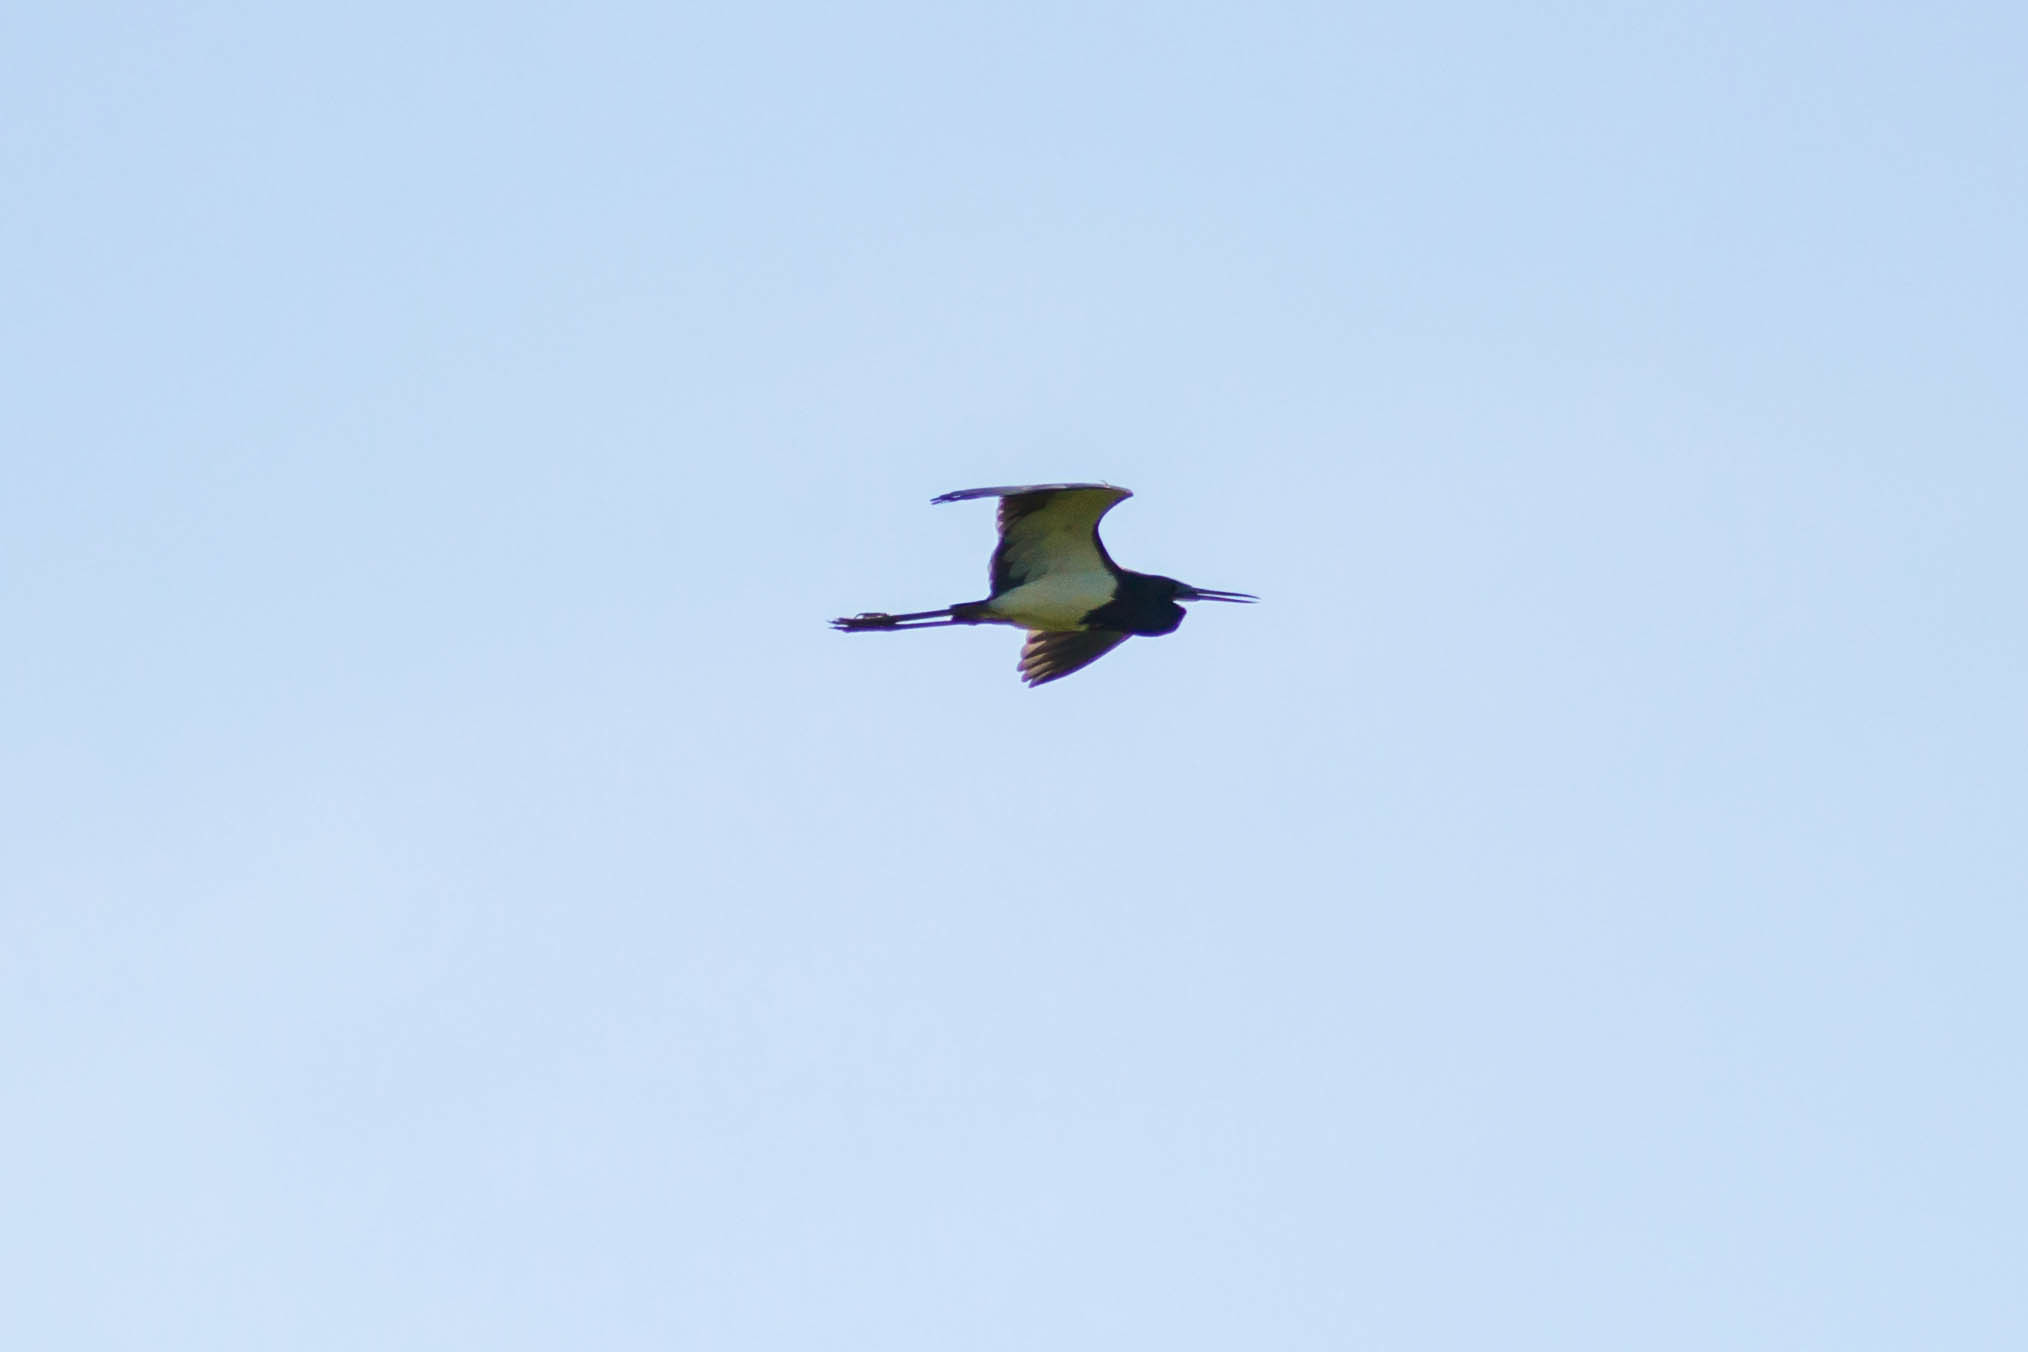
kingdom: Animalia
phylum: Chordata
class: Aves
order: Pelecaniformes
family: Ardeidae
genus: Egretta
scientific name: Egretta tricolor
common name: Tricolored heron
